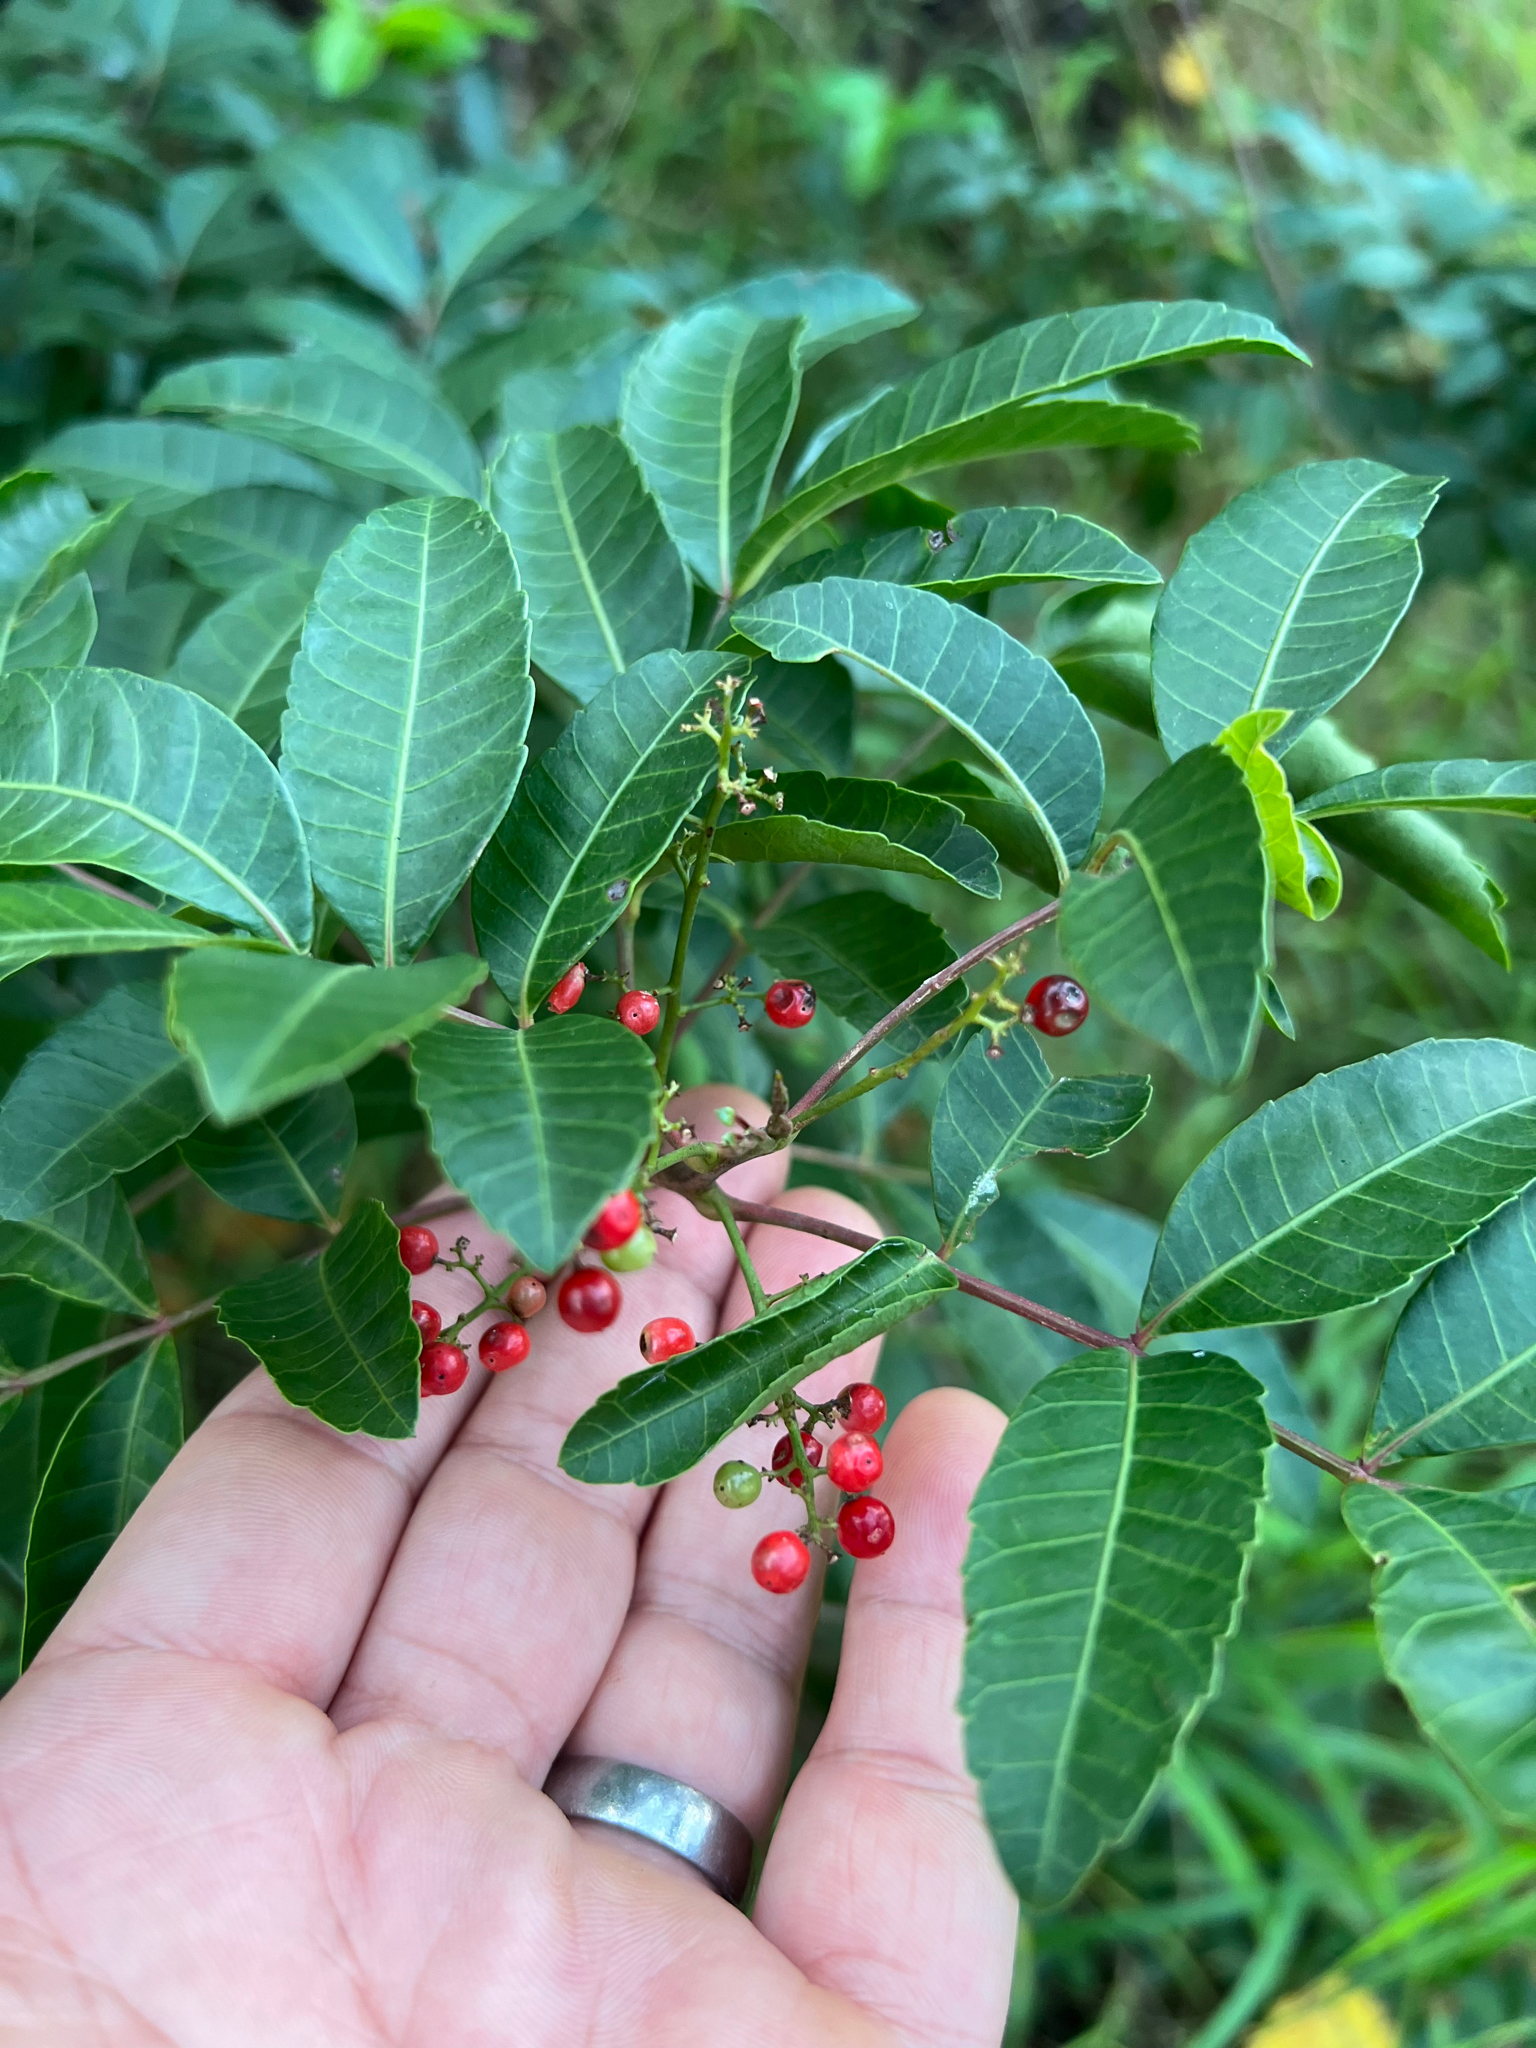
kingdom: Plantae
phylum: Tracheophyta
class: Magnoliopsida
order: Sapindales
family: Anacardiaceae
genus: Schinus
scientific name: Schinus terebinthifolia
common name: Brazilian peppertree
